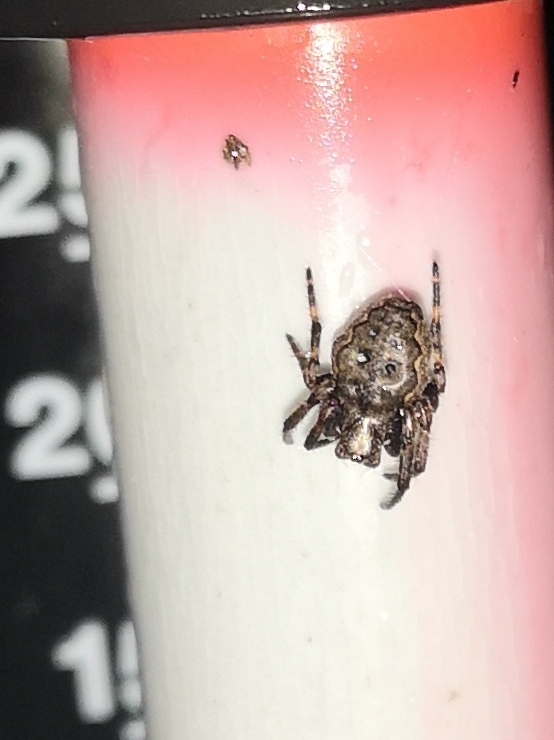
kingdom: Animalia
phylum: Arthropoda
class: Arachnida
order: Araneae
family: Araneidae
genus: Nuctenea
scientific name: Nuctenea umbratica
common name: Toad spider
